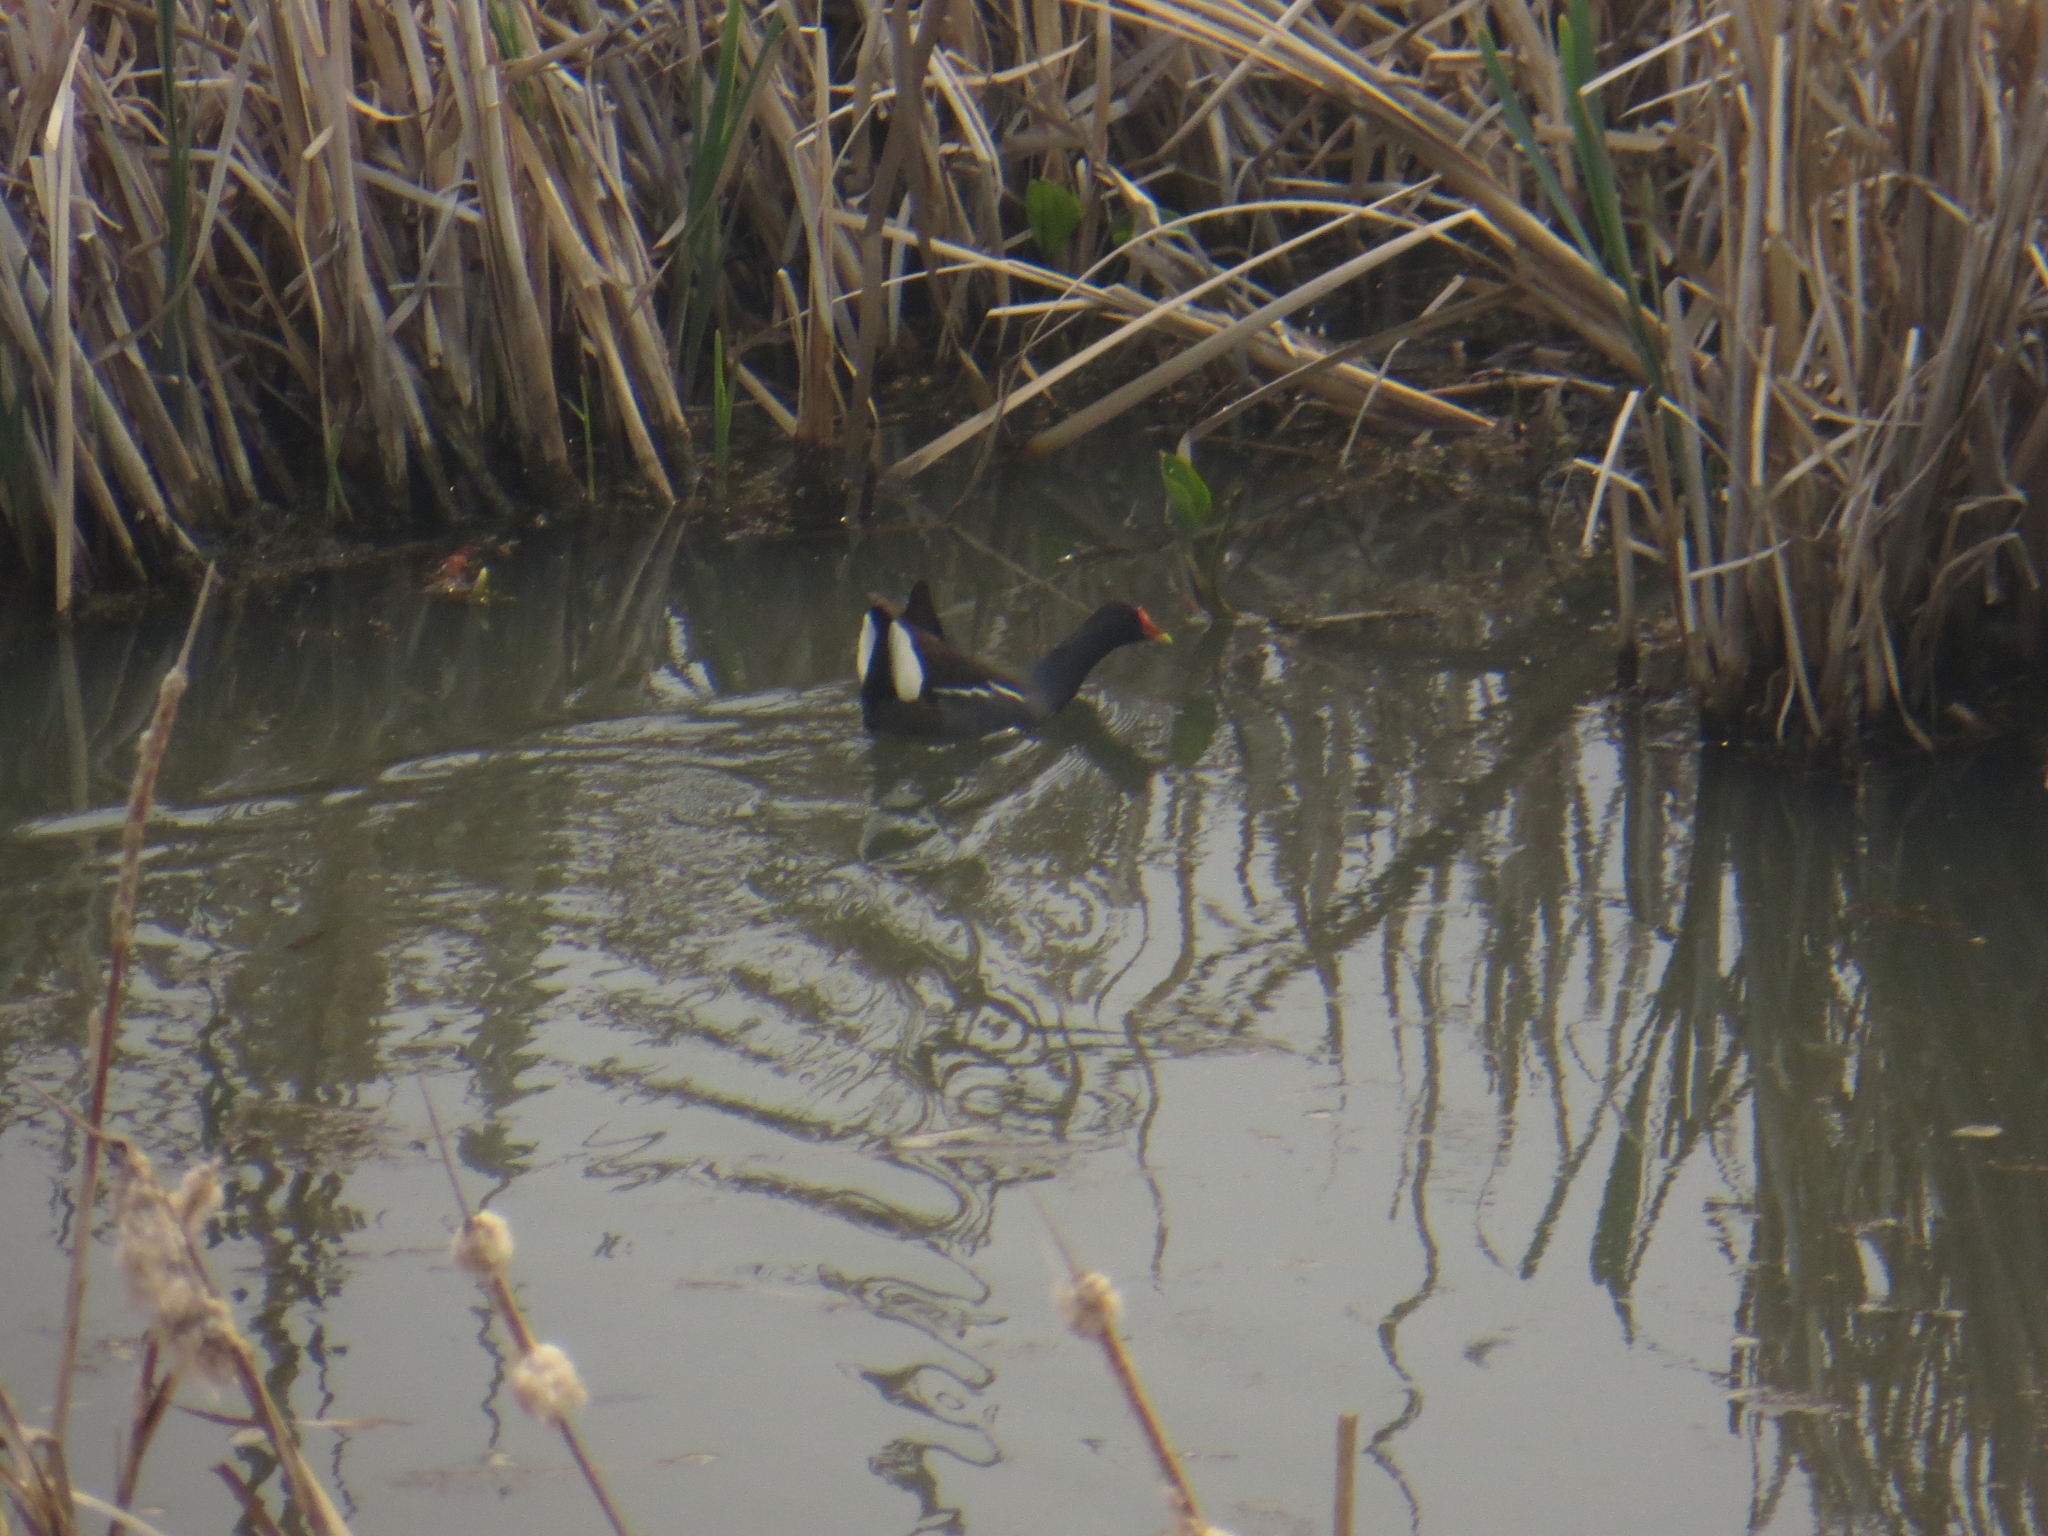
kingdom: Animalia
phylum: Chordata
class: Aves
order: Gruiformes
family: Rallidae
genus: Gallinula
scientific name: Gallinula chloropus
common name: Common moorhen
